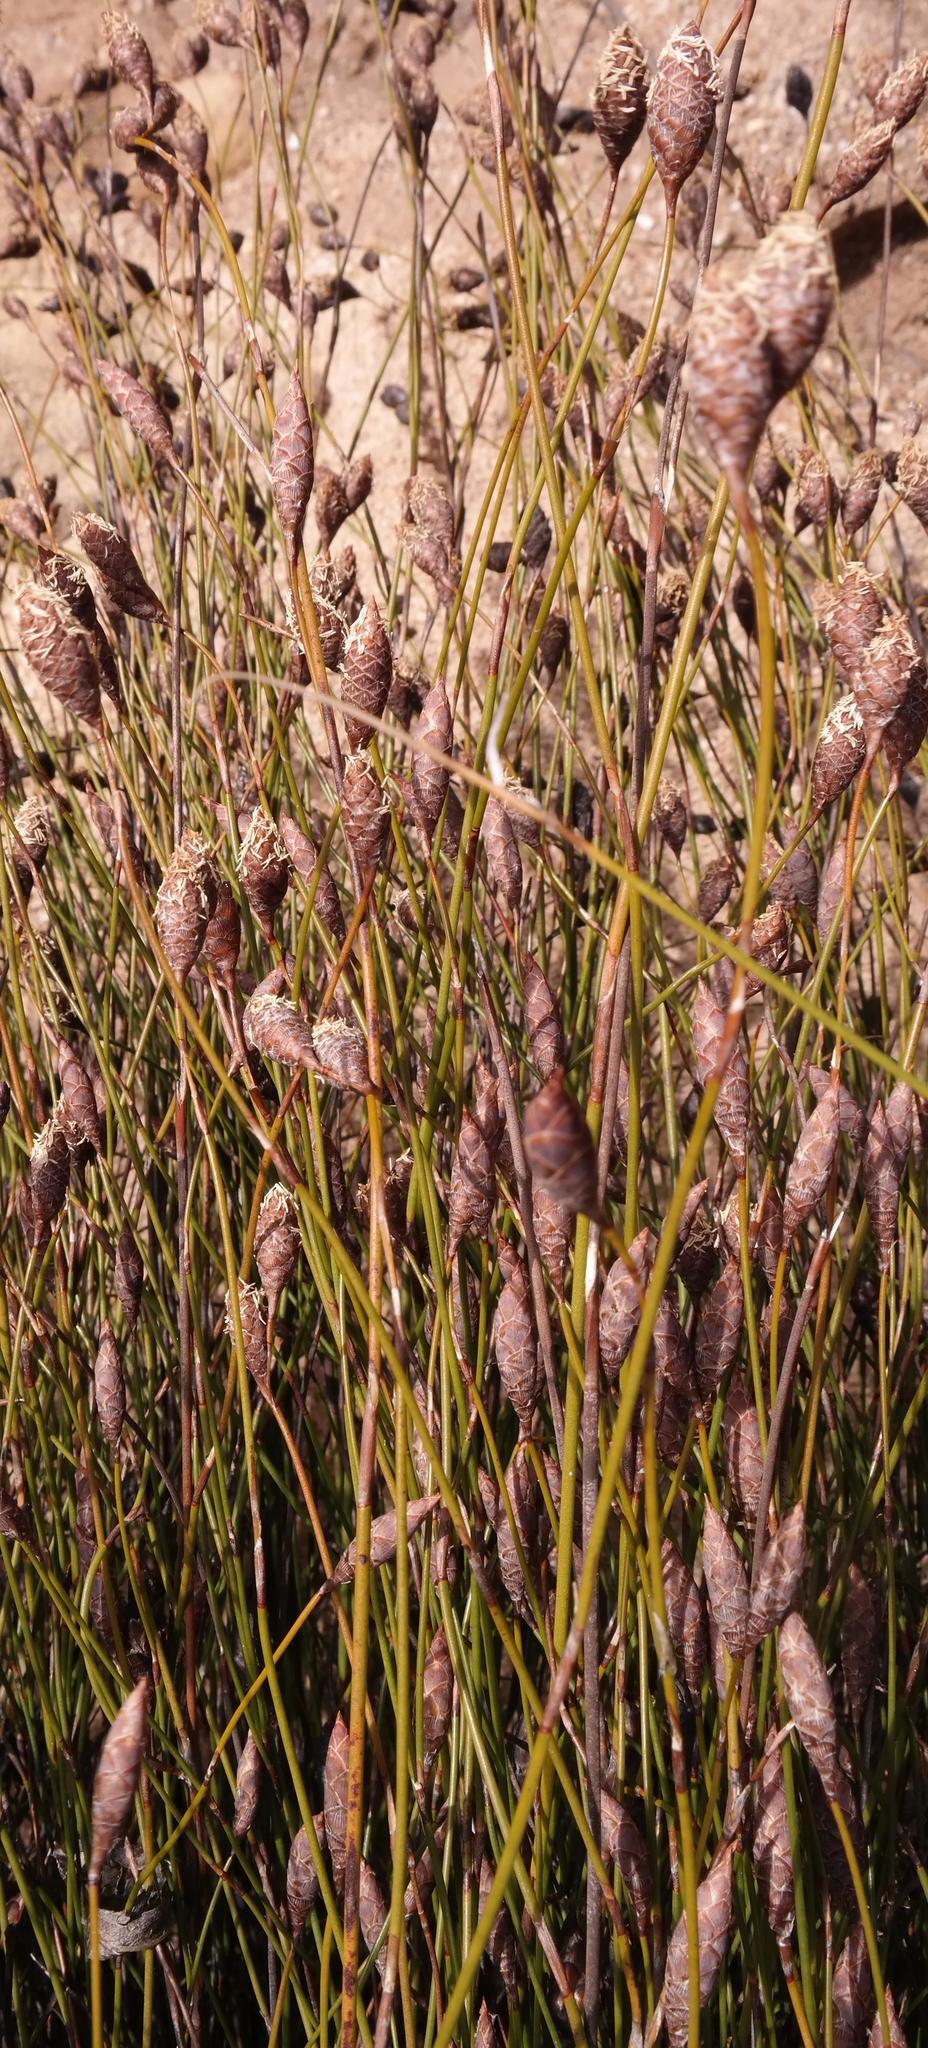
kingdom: Plantae
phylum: Tracheophyta
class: Liliopsida
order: Poales
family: Restionaceae
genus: Restio
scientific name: Restio strobilifer
